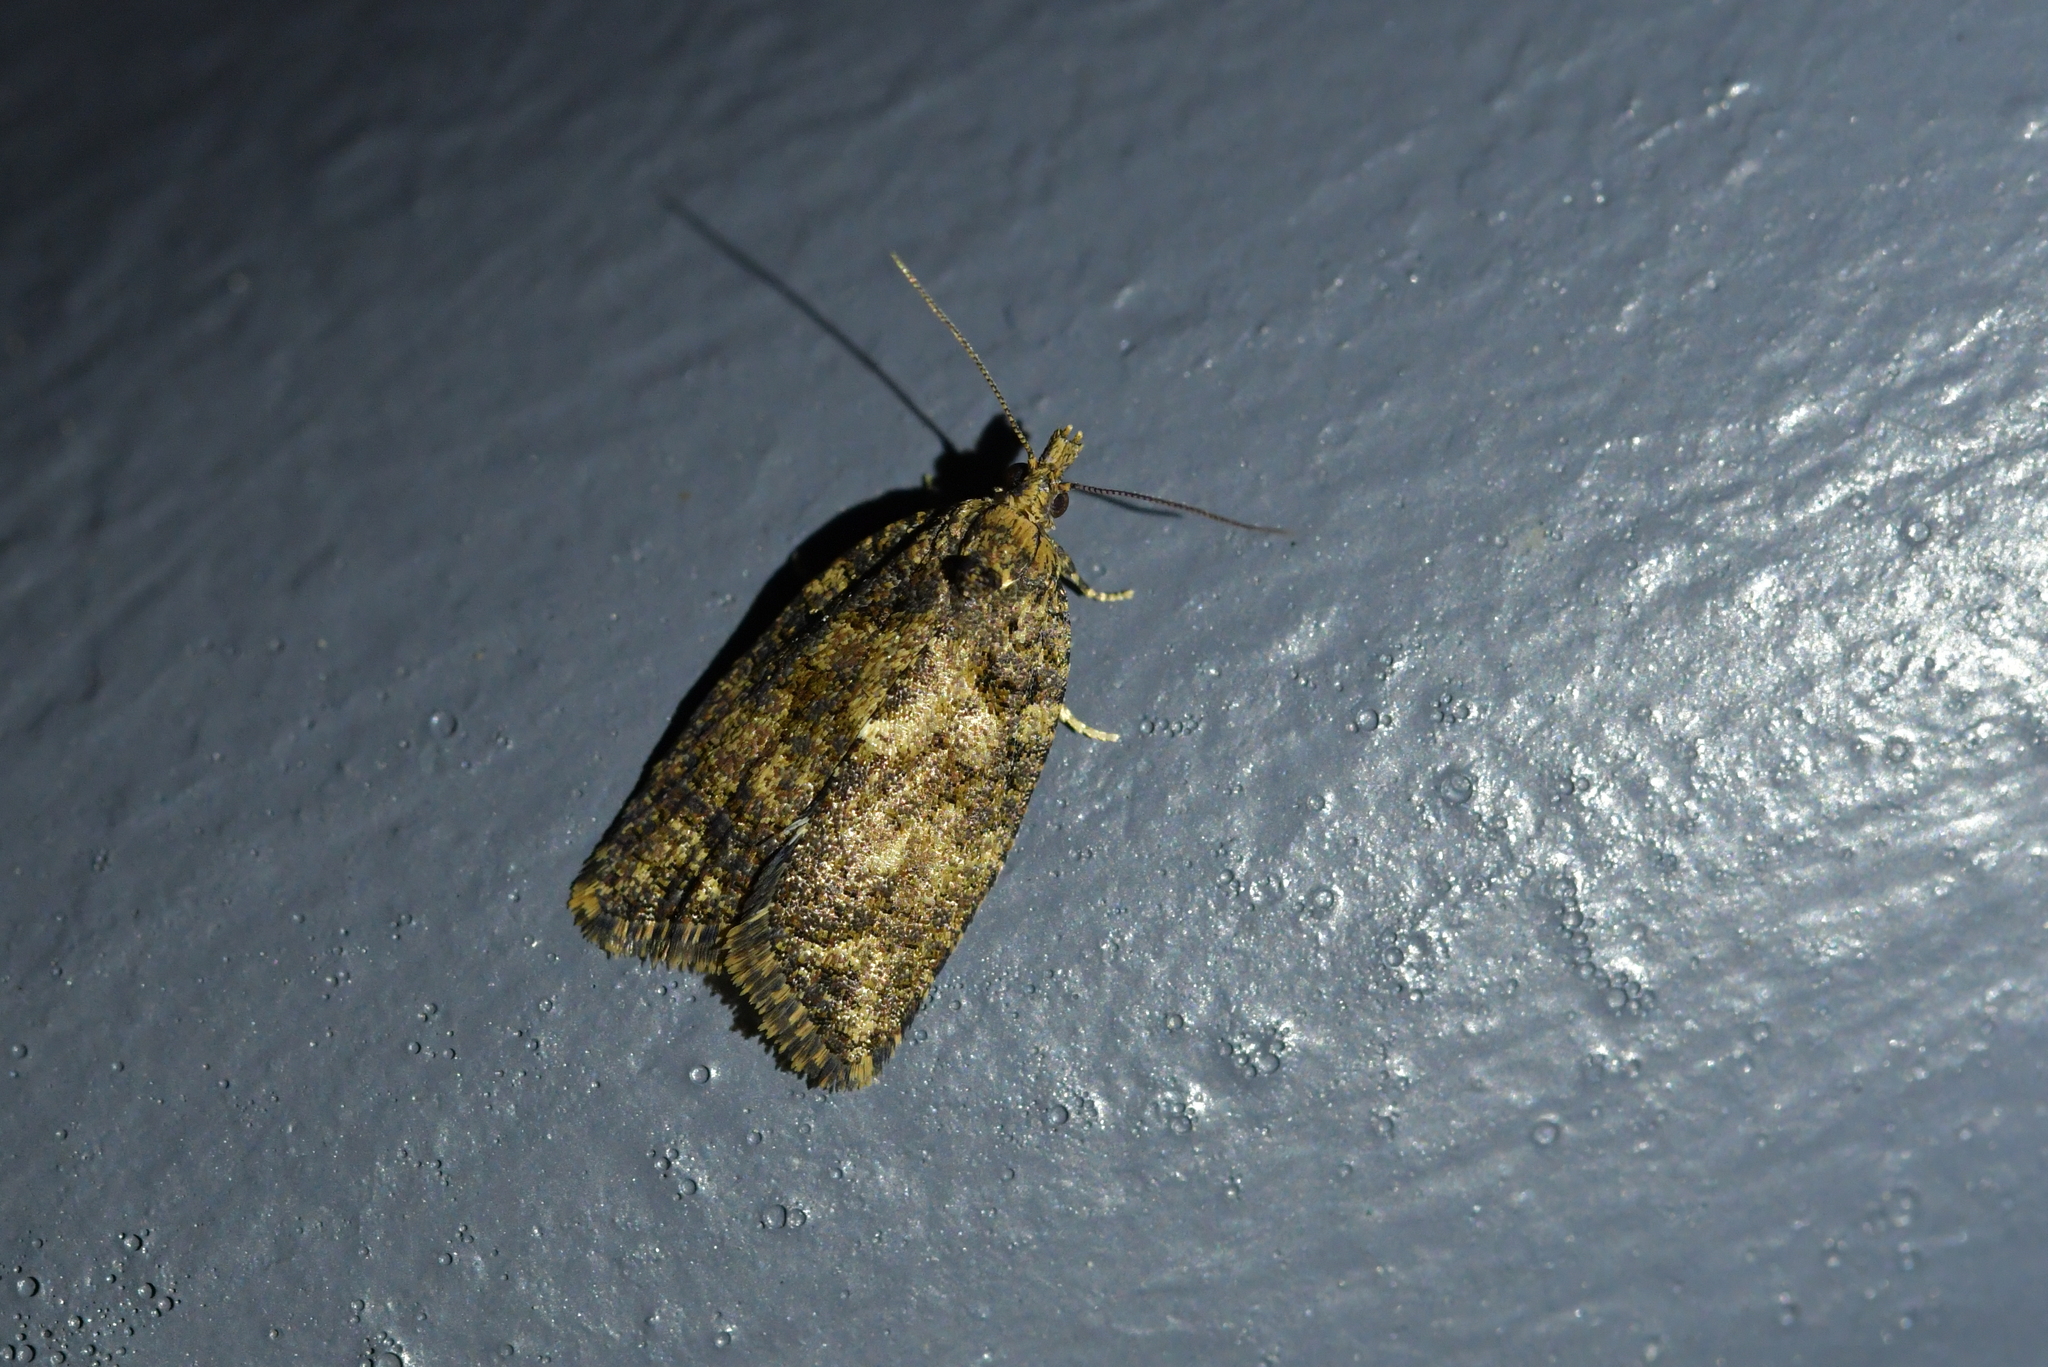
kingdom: Animalia
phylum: Arthropoda
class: Insecta
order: Lepidoptera
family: Tortricidae
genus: Capua
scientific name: Capua intractana
